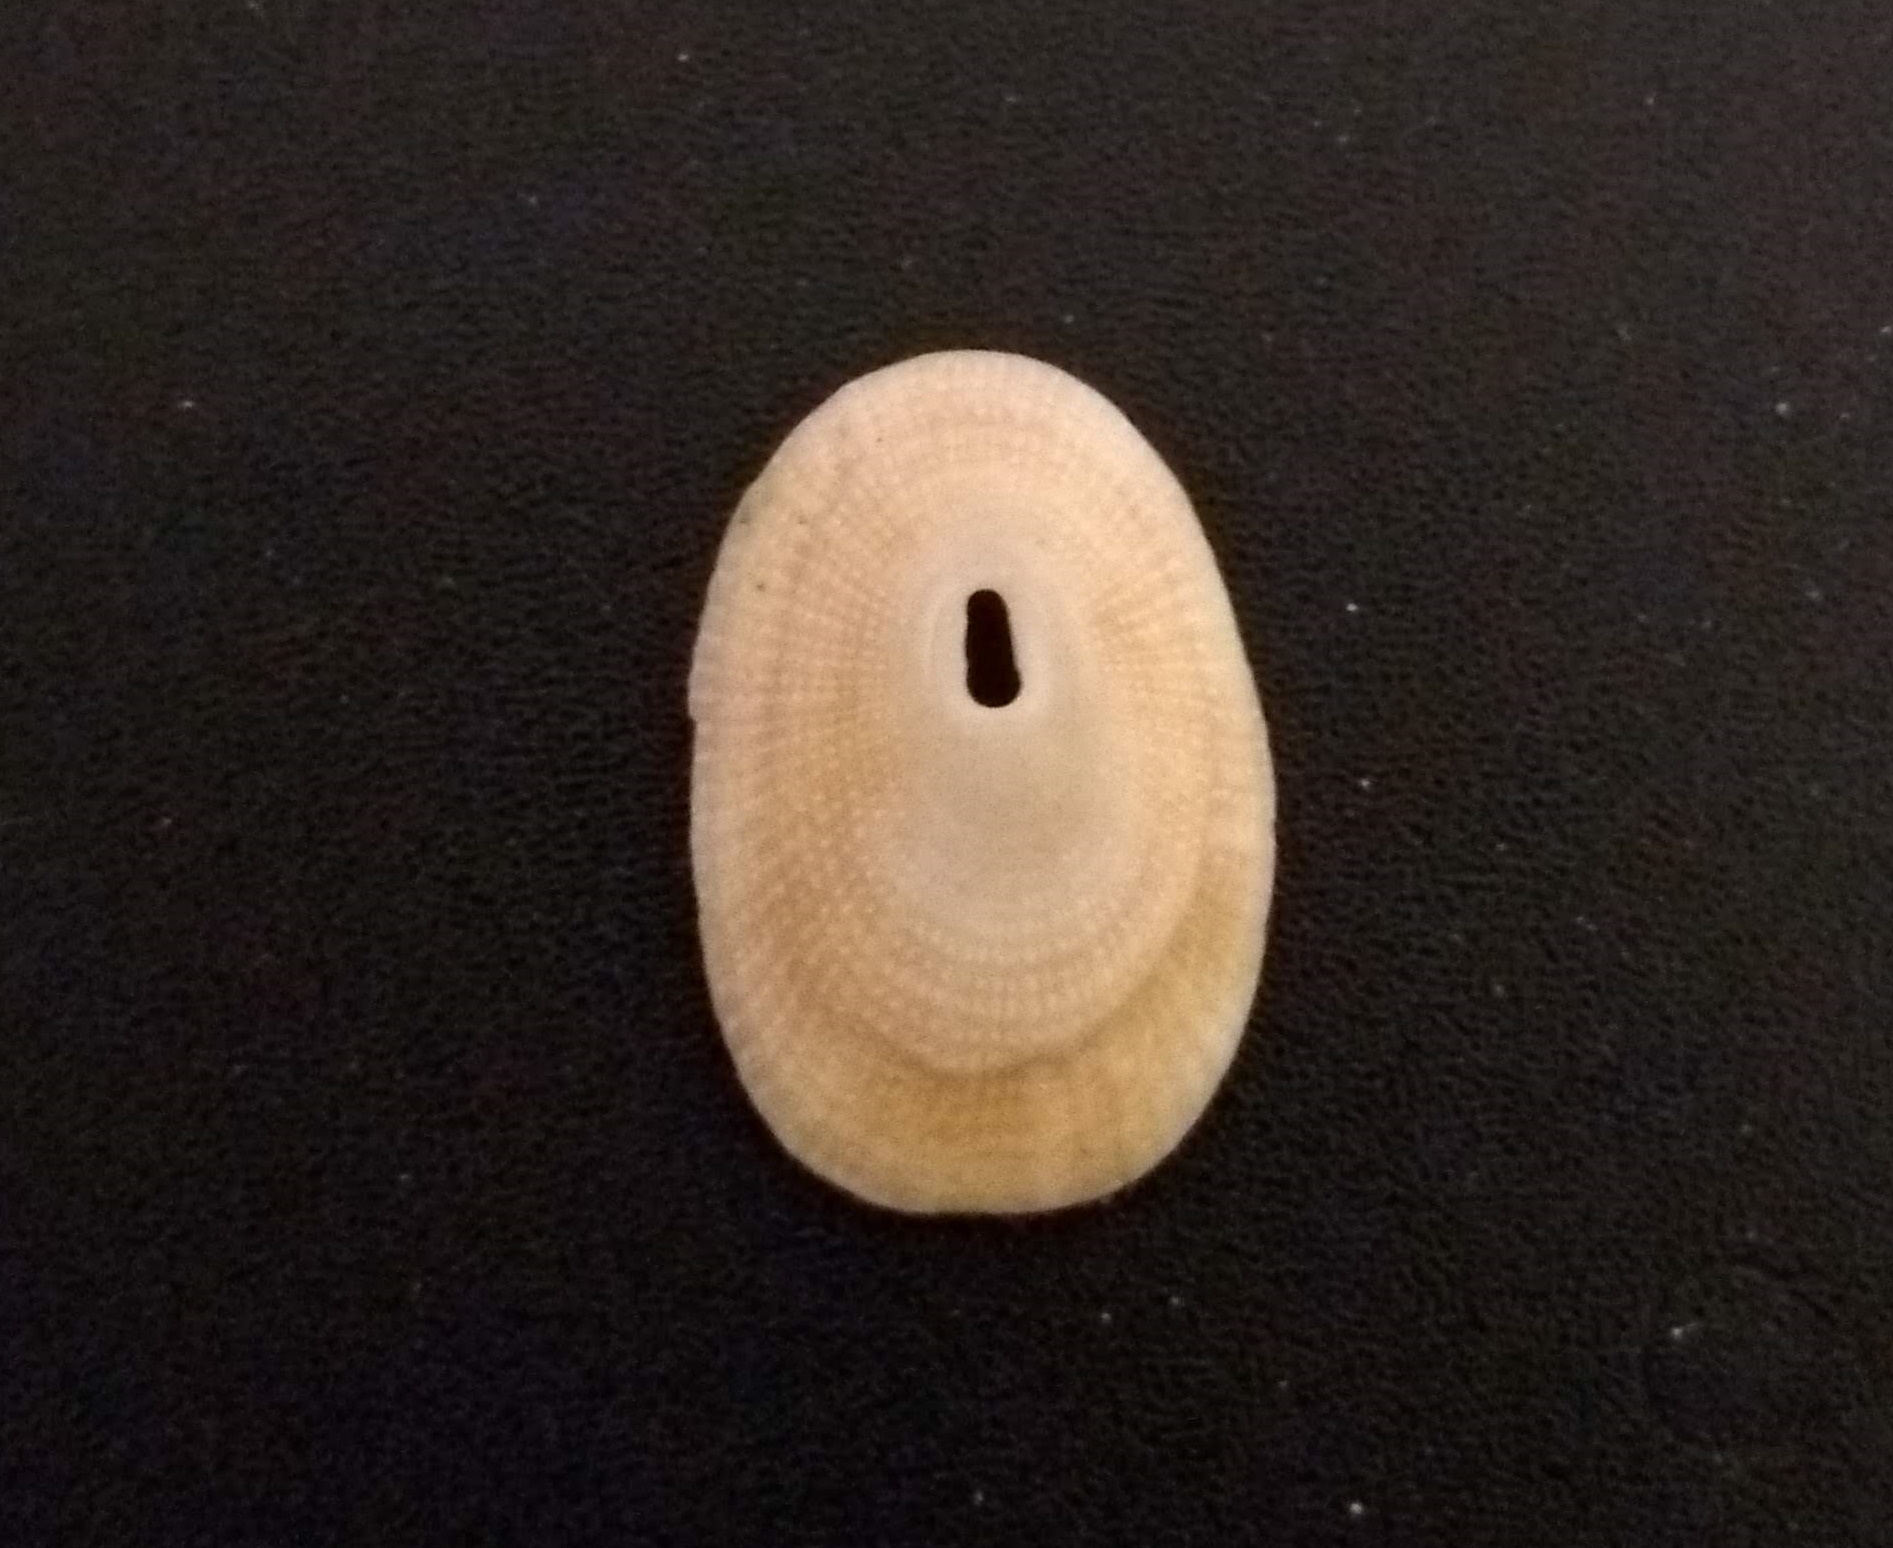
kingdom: Animalia
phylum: Mollusca
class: Gastropoda
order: Lepetellida
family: Fissurellidae
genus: Diodora
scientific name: Diodora sayi
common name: Say's keyhole limpet
